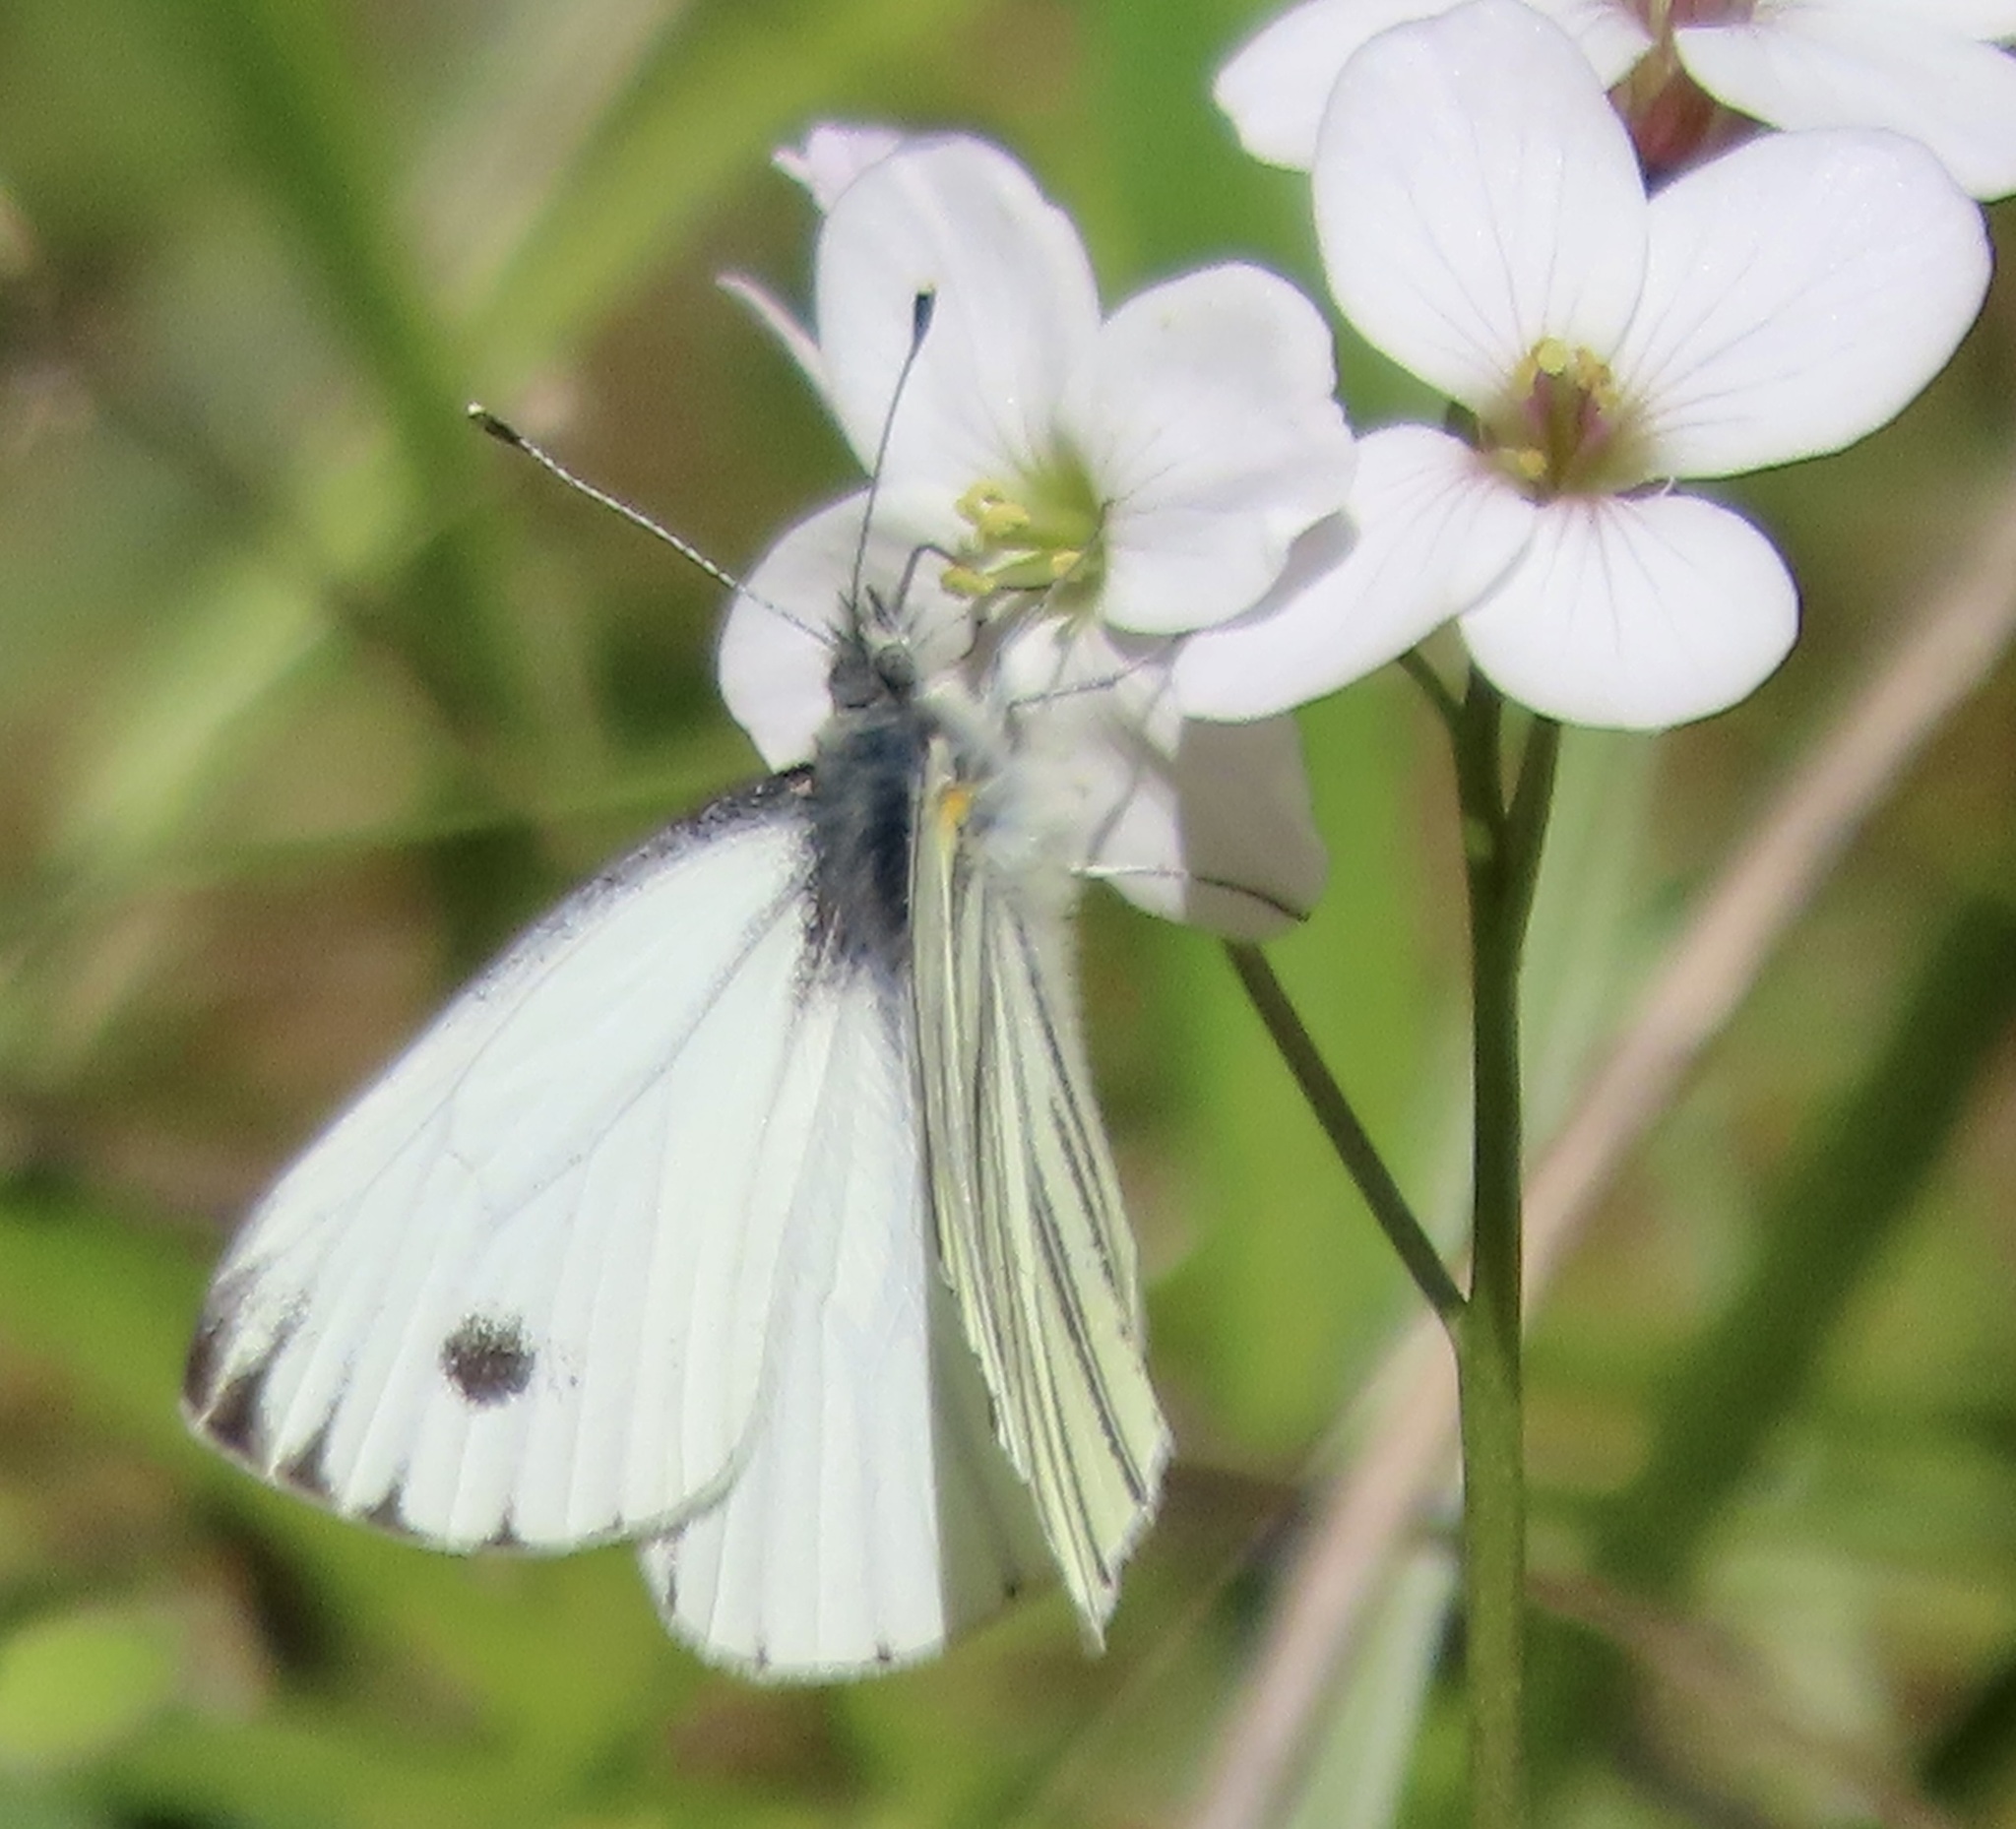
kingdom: Animalia
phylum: Arthropoda
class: Insecta
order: Lepidoptera
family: Pieridae
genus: Pieris
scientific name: Pieris marginalis
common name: Margined white
